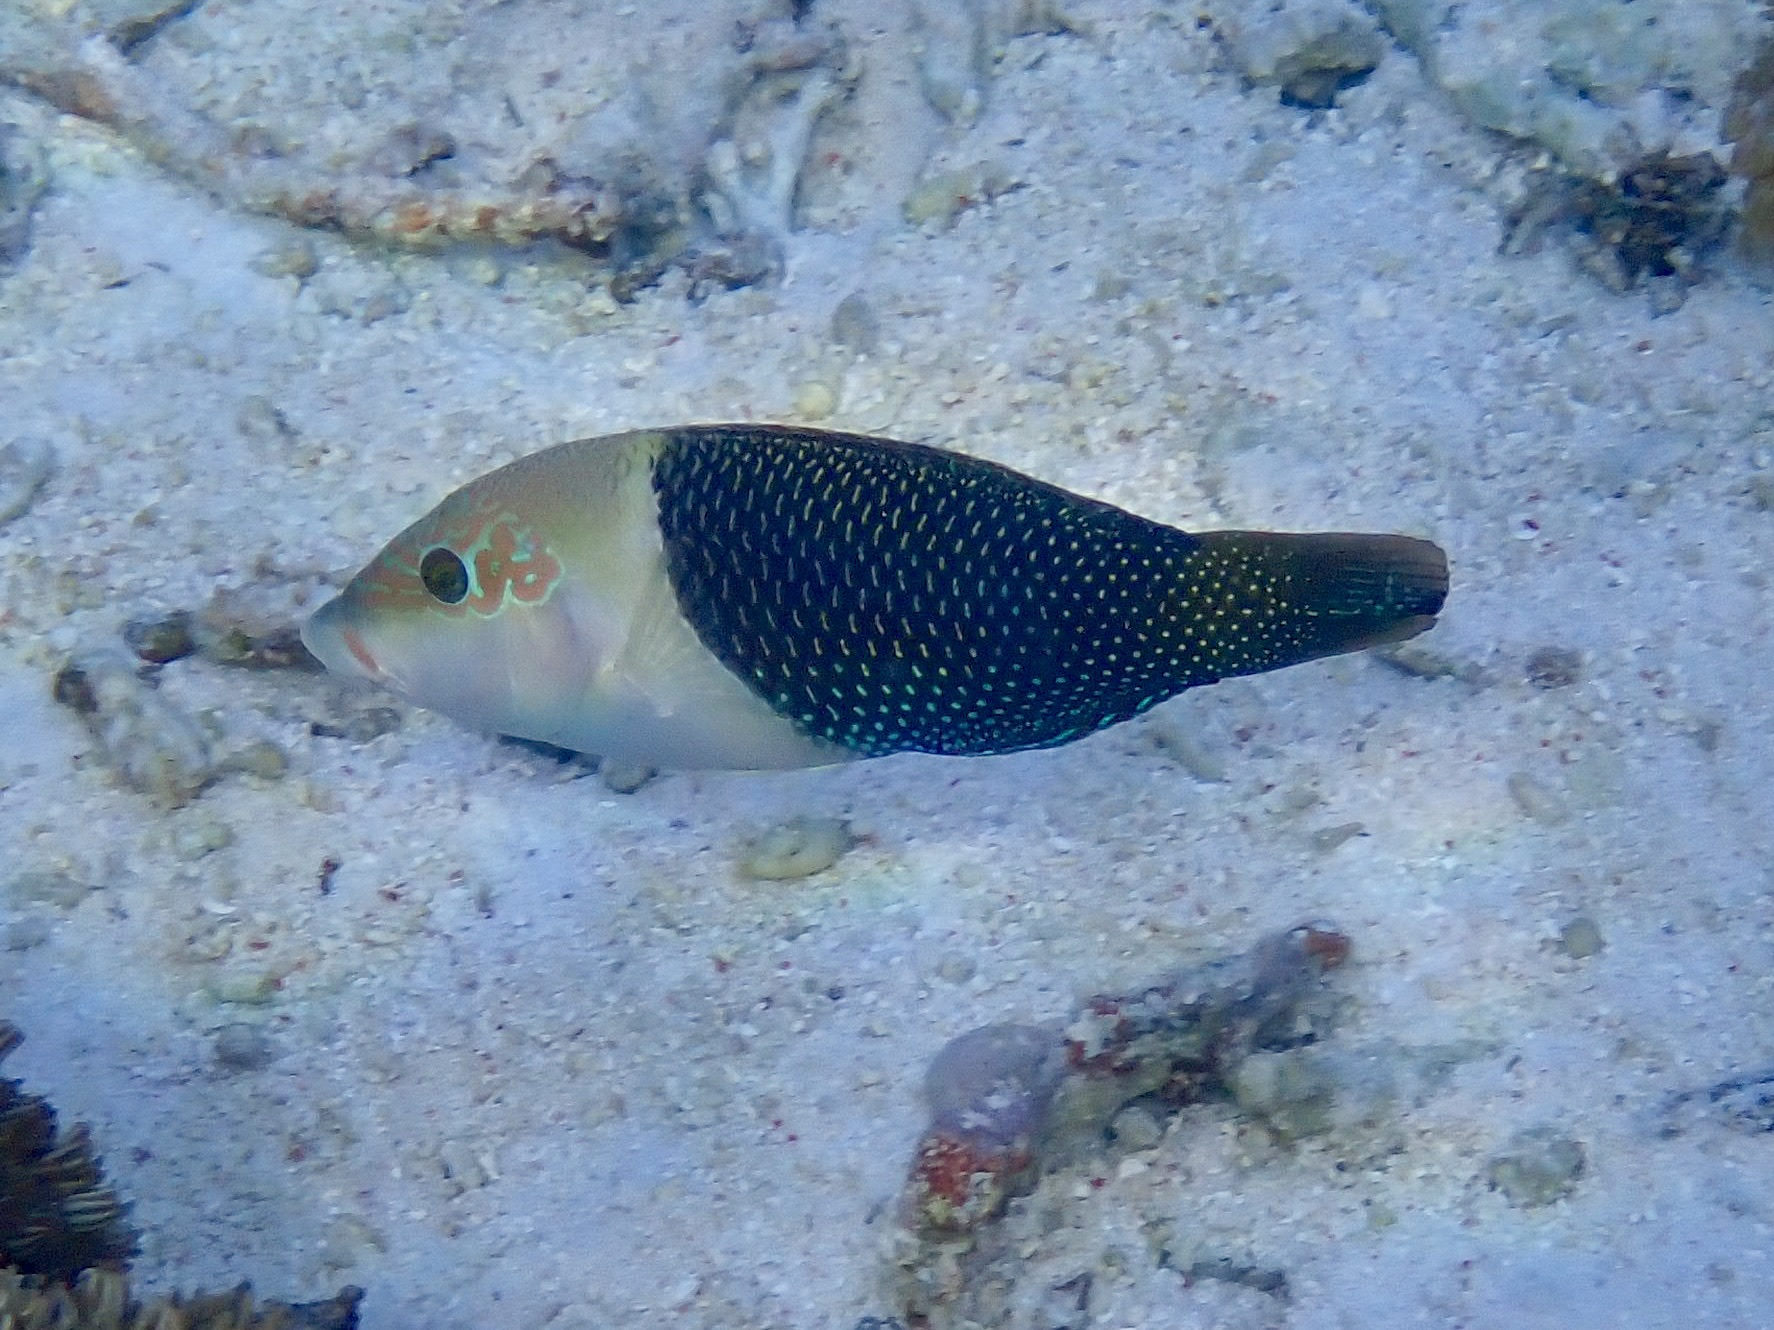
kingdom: Animalia
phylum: Chordata
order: Perciformes
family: Labridae
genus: Hemigymnus
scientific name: Hemigymnus melapterus
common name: Blackeye thicklip
